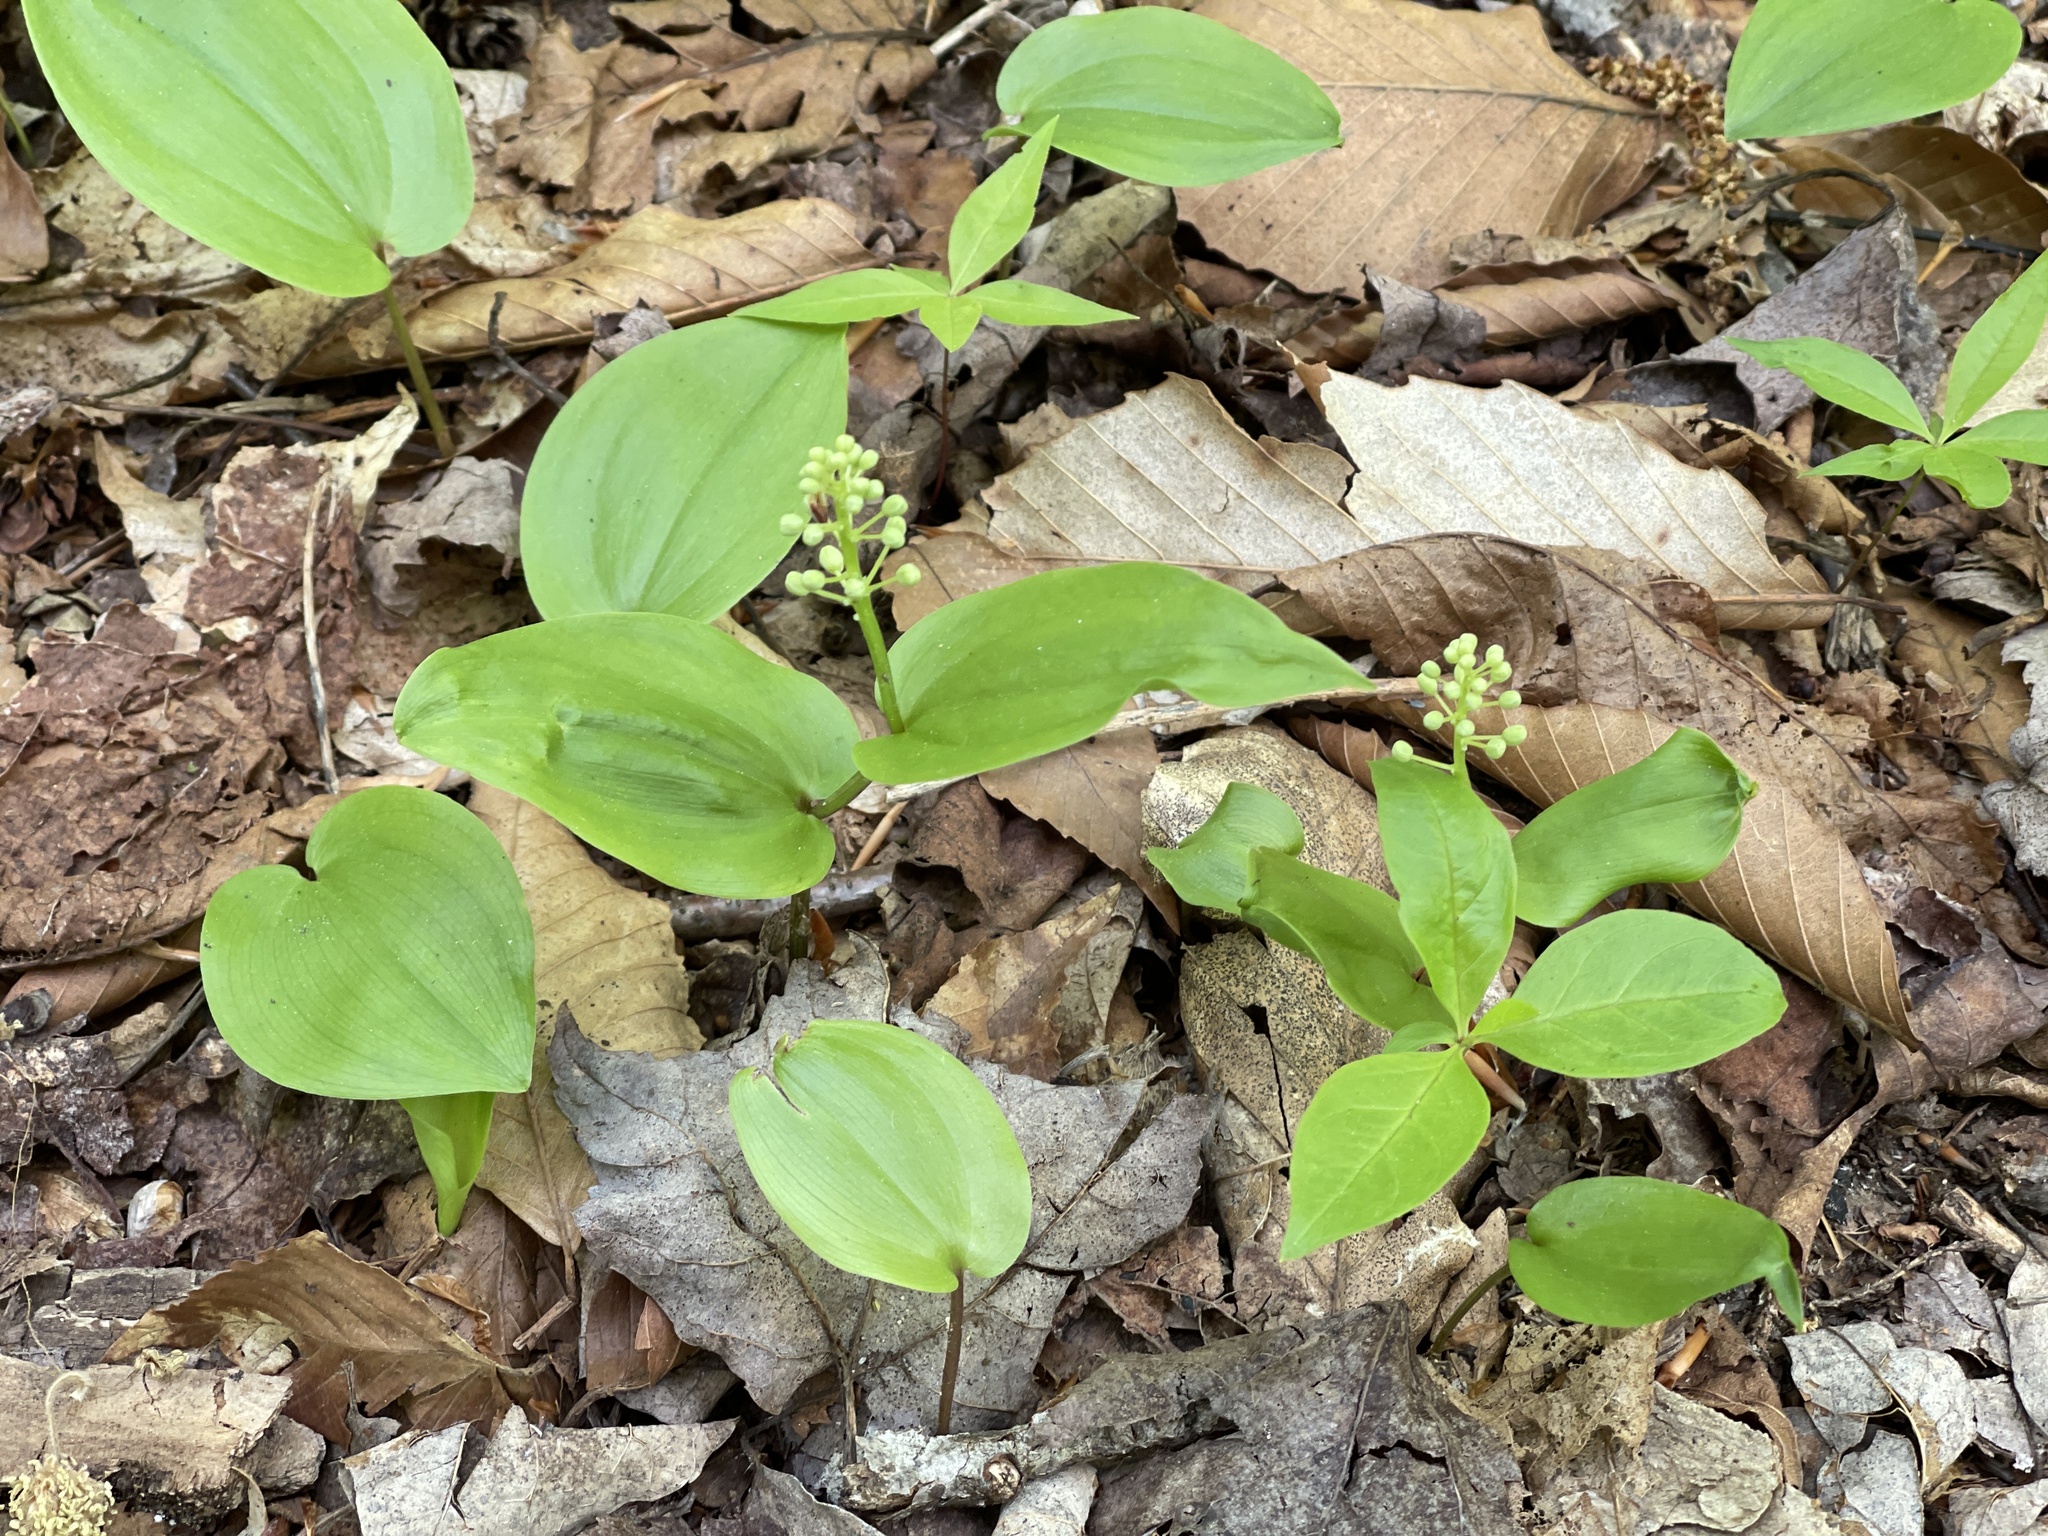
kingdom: Plantae
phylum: Tracheophyta
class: Liliopsida
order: Asparagales
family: Asparagaceae
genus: Maianthemum
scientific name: Maianthemum canadense
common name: False lily-of-the-valley
